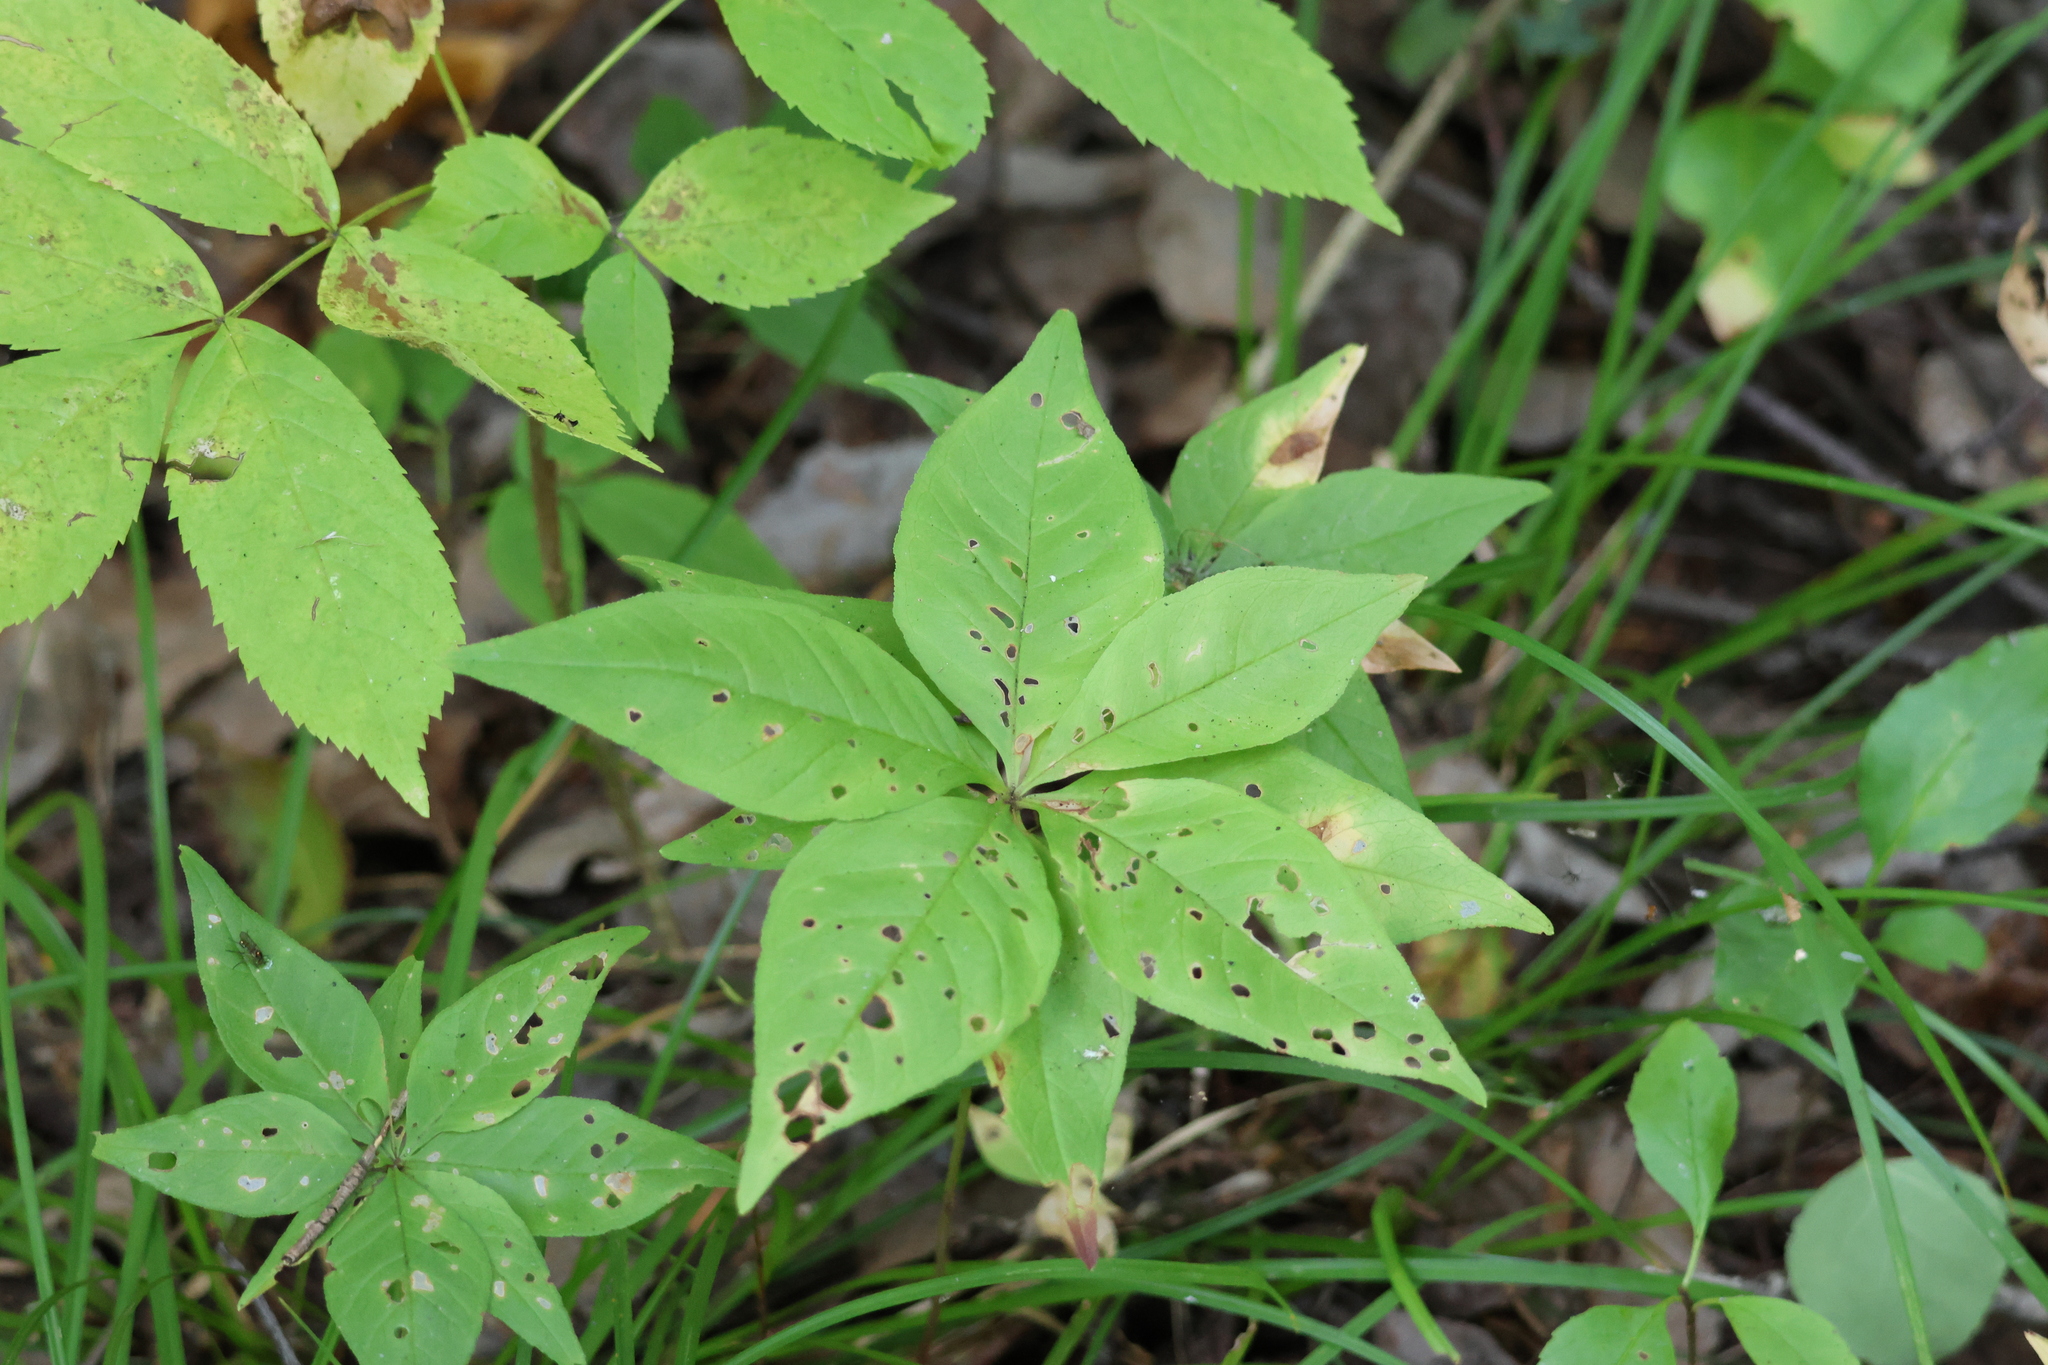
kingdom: Plantae
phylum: Tracheophyta
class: Magnoliopsida
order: Ericales
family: Primulaceae
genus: Lysimachia
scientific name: Lysimachia borealis
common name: American starflower
